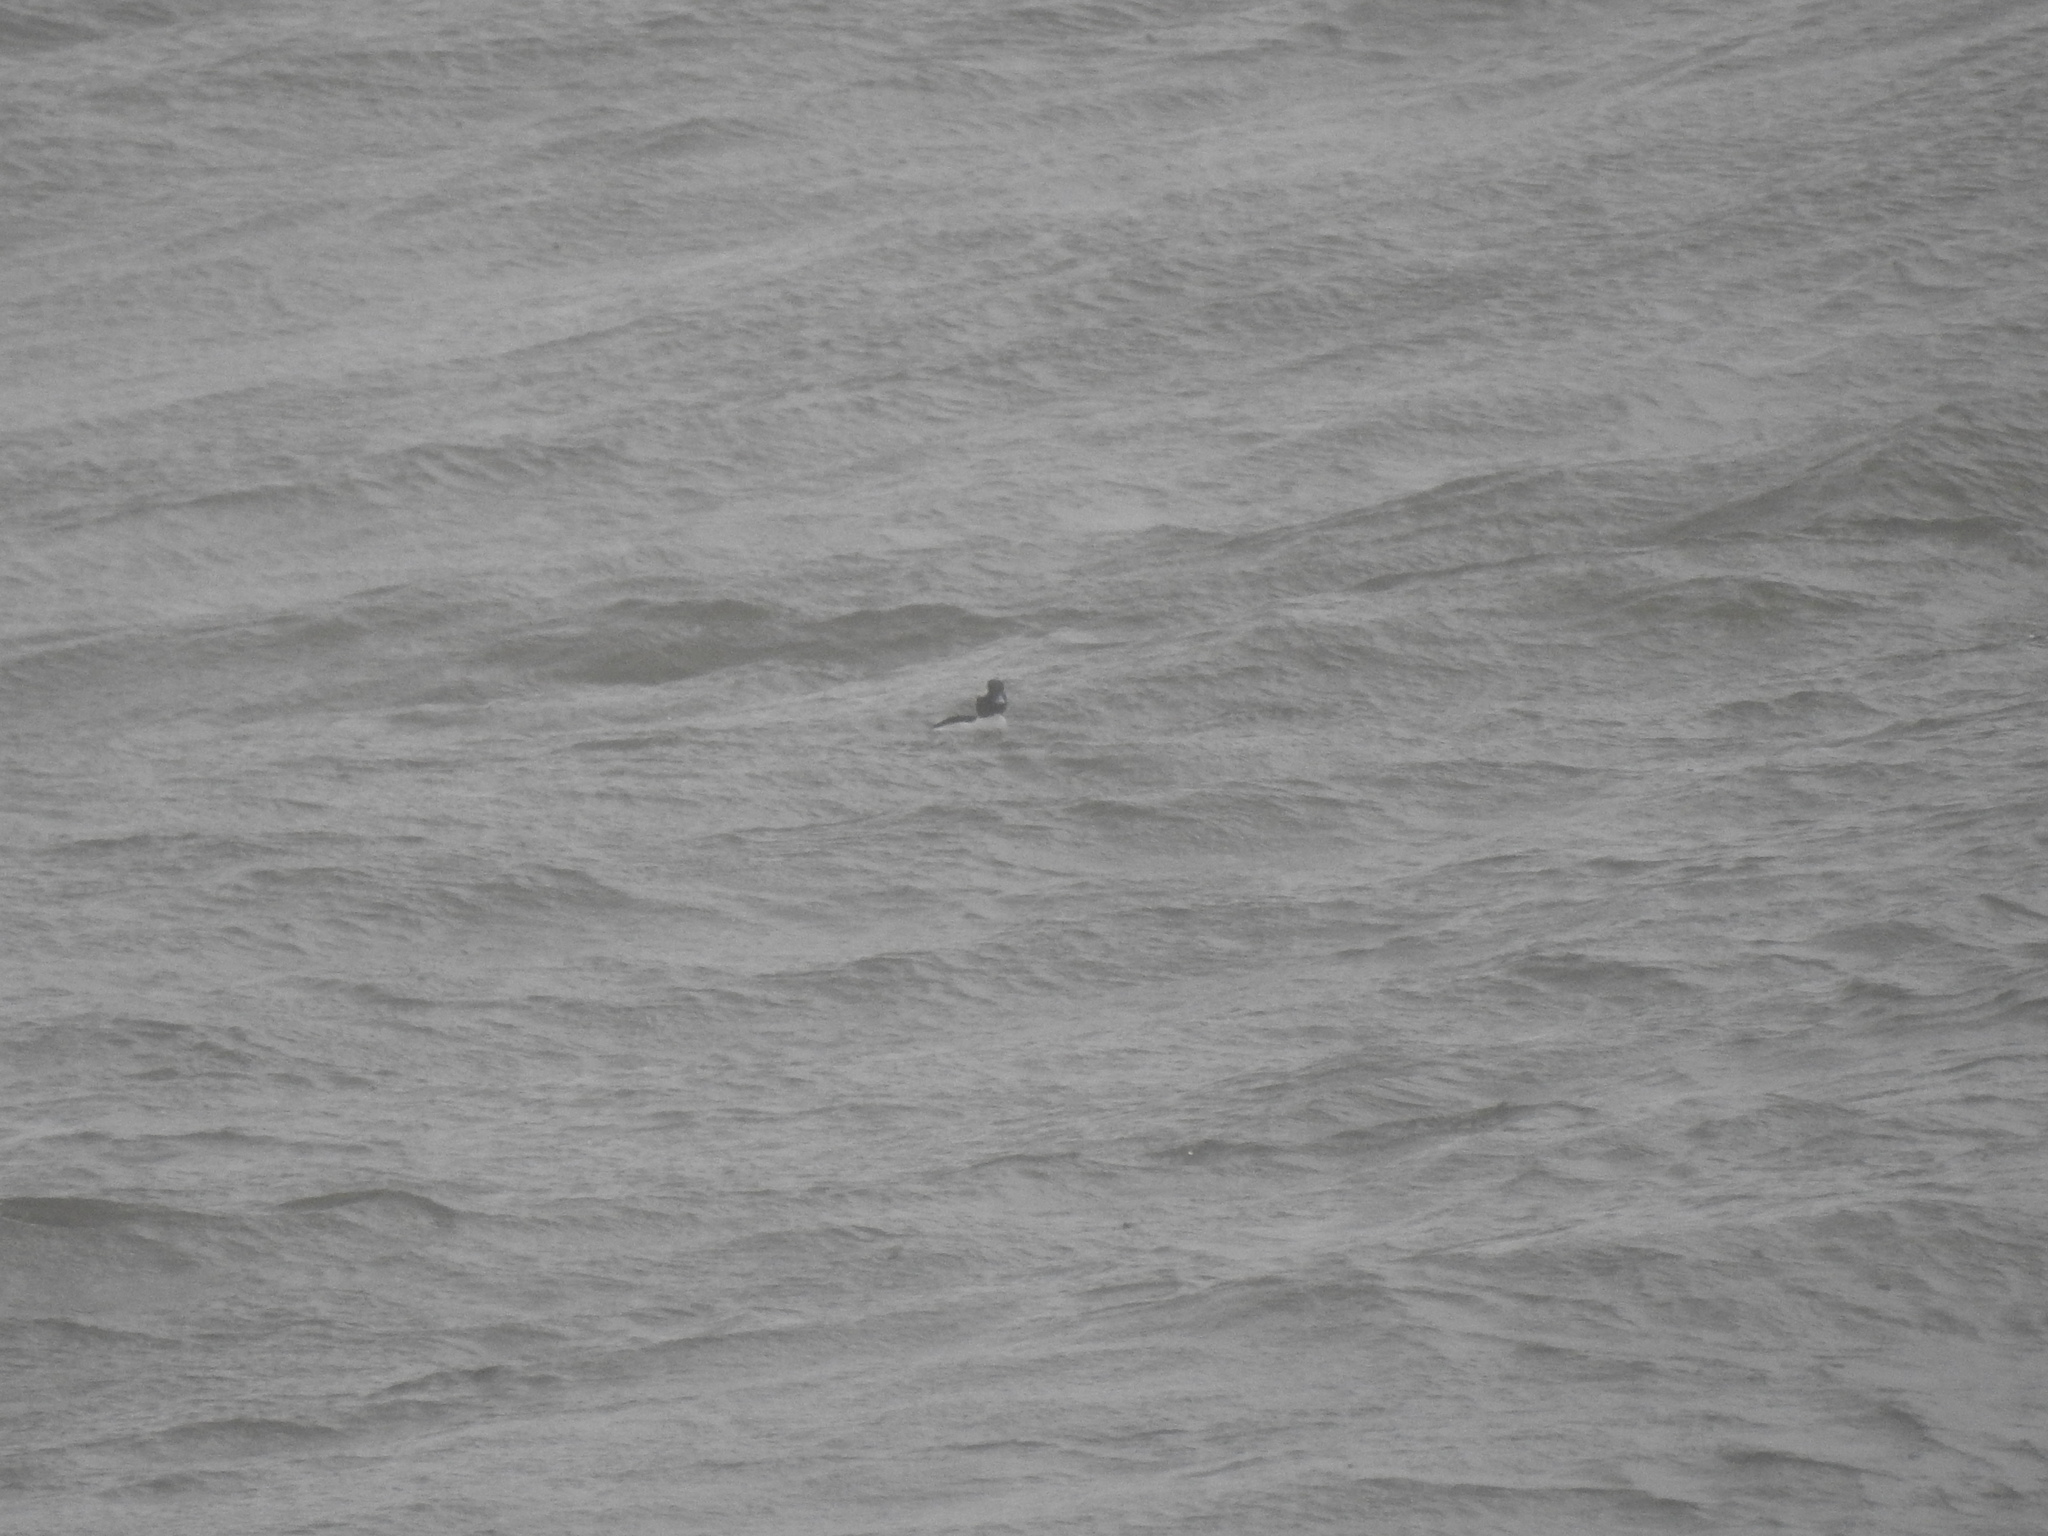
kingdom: Animalia
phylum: Chordata
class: Aves
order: Anseriformes
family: Anatidae
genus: Bucephala
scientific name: Bucephala albeola
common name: Bufflehead
